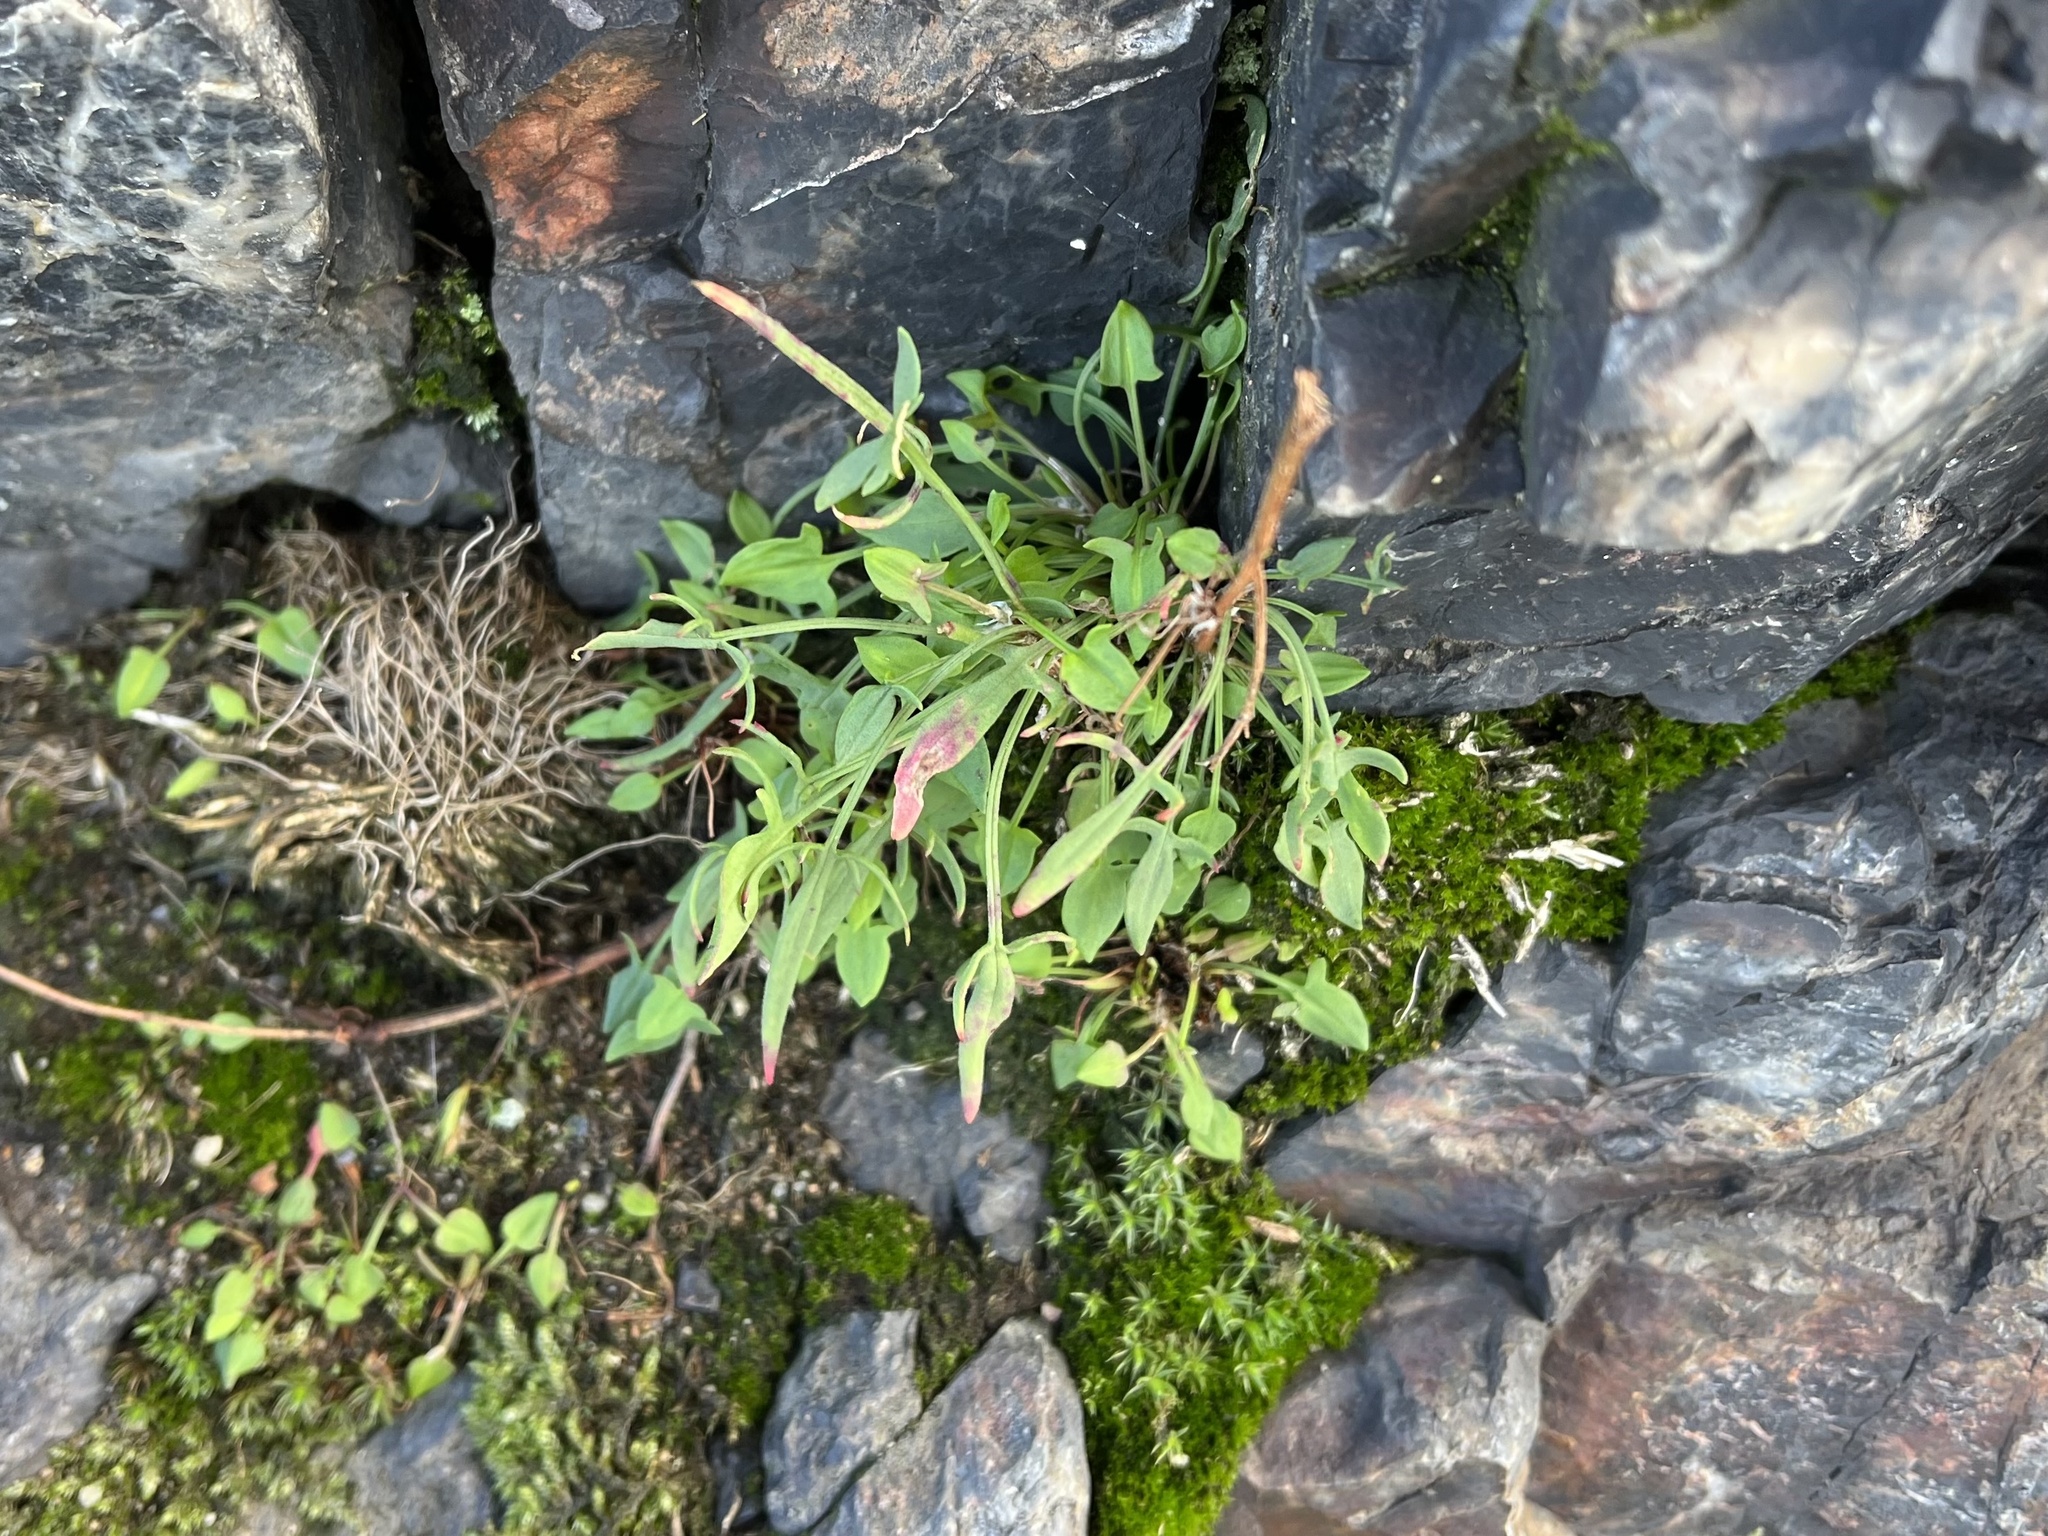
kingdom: Plantae
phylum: Tracheophyta
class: Magnoliopsida
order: Caryophyllales
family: Polygonaceae
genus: Rumex
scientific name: Rumex acetosella
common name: Common sheep sorrel
